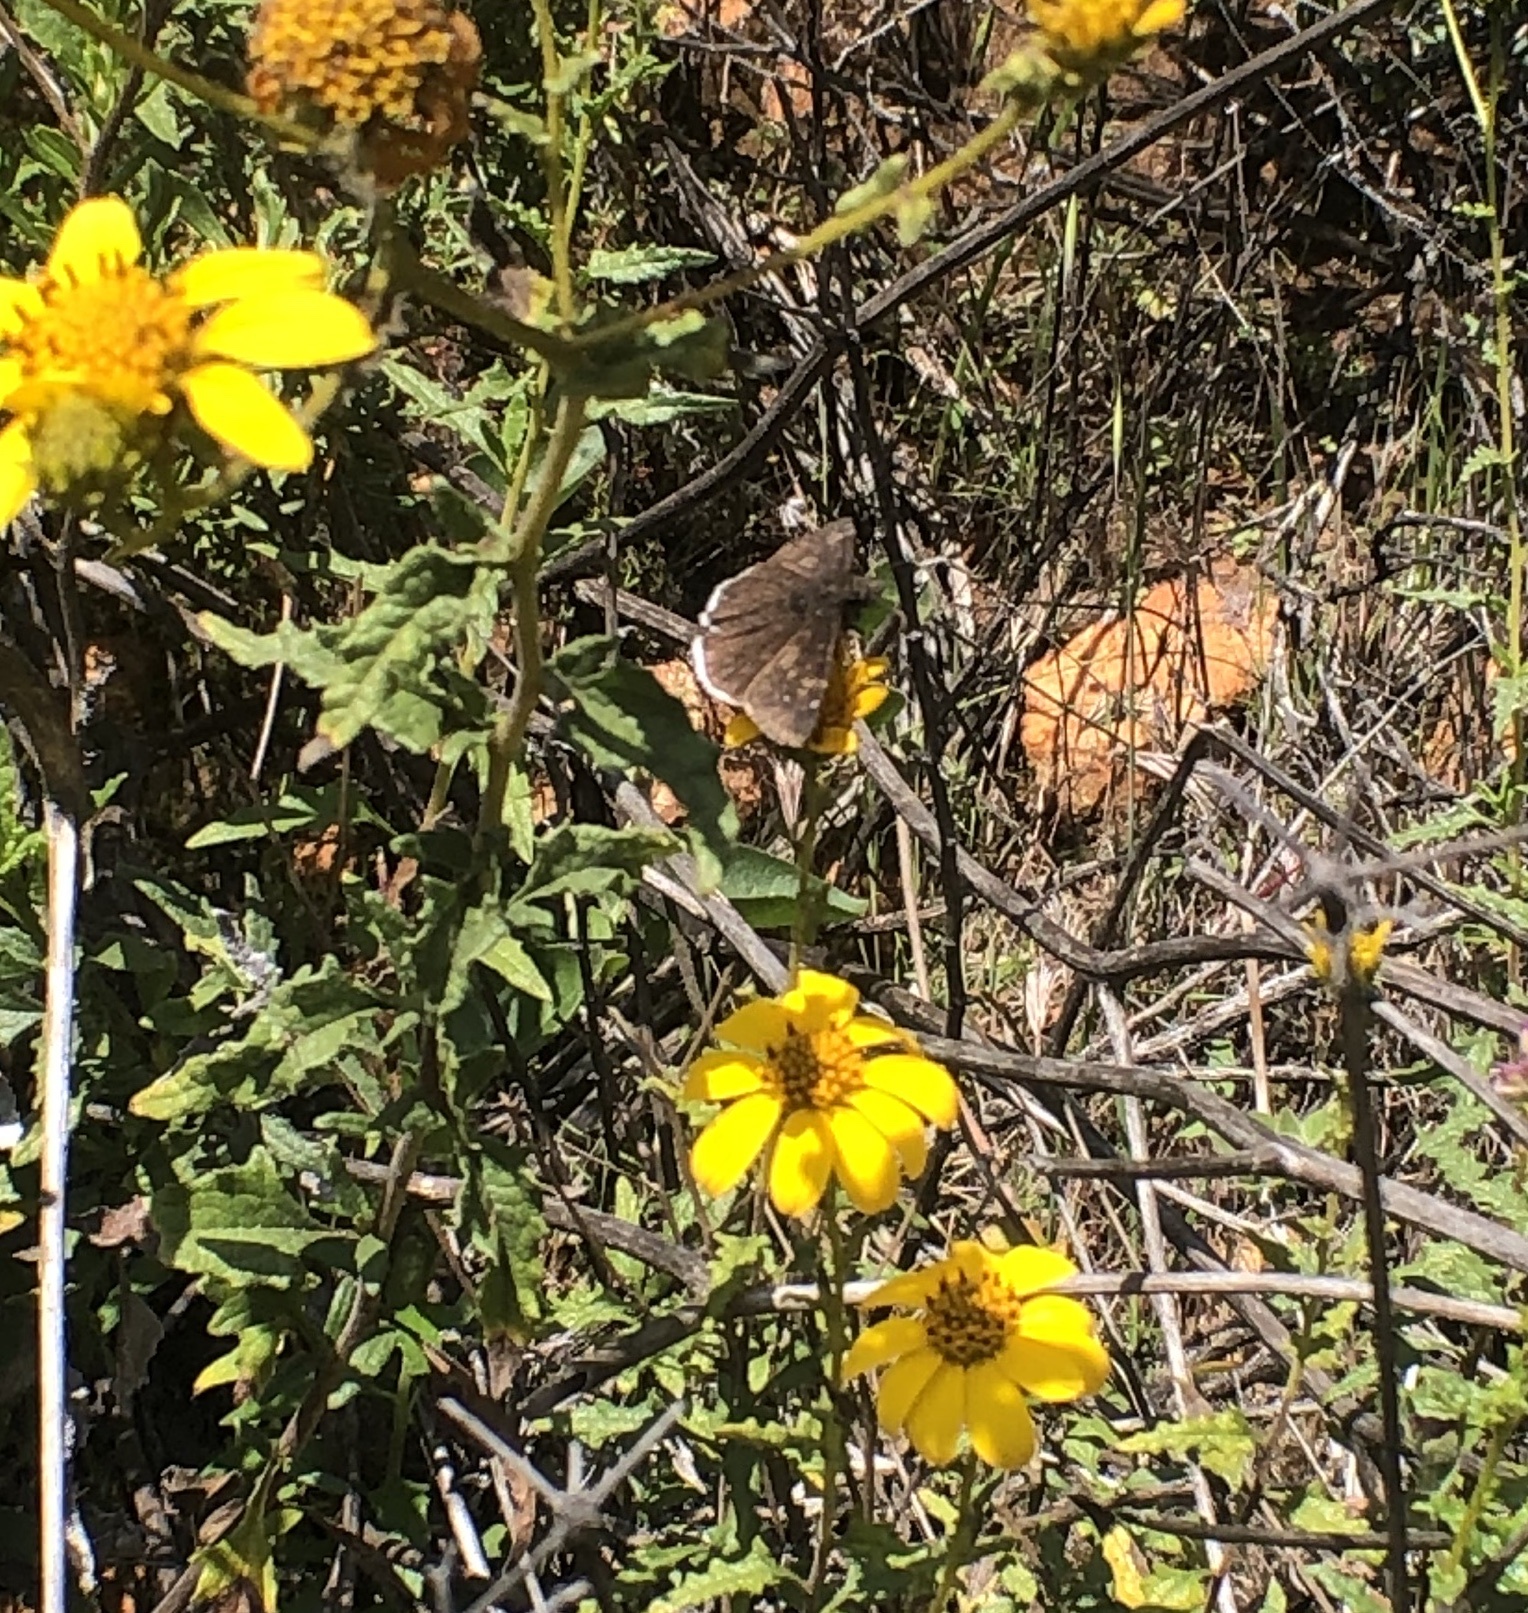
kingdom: Animalia
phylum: Arthropoda
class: Insecta
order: Lepidoptera
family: Hesperiidae
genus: Erynnis
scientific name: Erynnis funeralis
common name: Funereal duskywing
